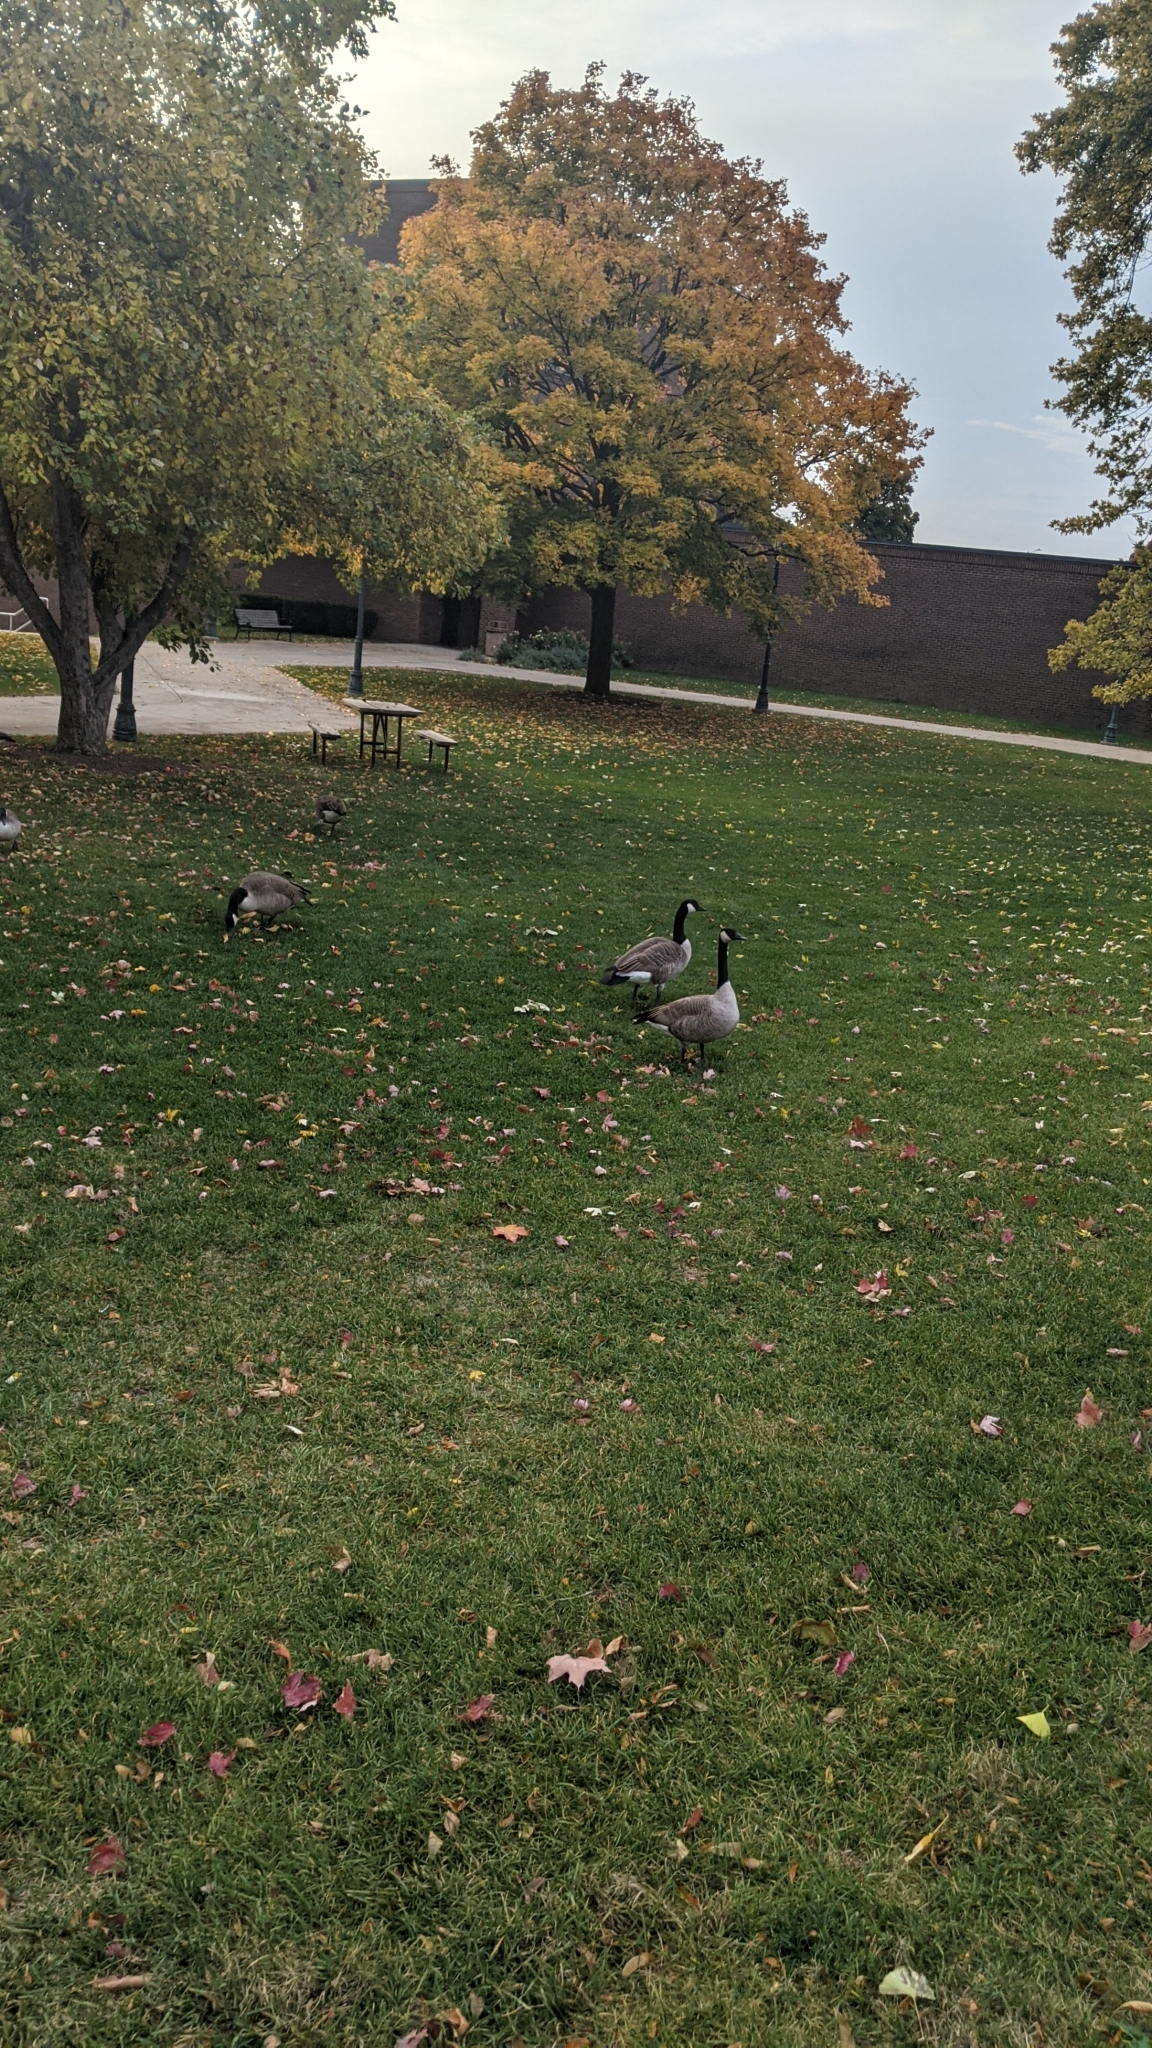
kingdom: Animalia
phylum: Chordata
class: Aves
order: Anseriformes
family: Anatidae
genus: Branta
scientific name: Branta canadensis
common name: Canada goose
